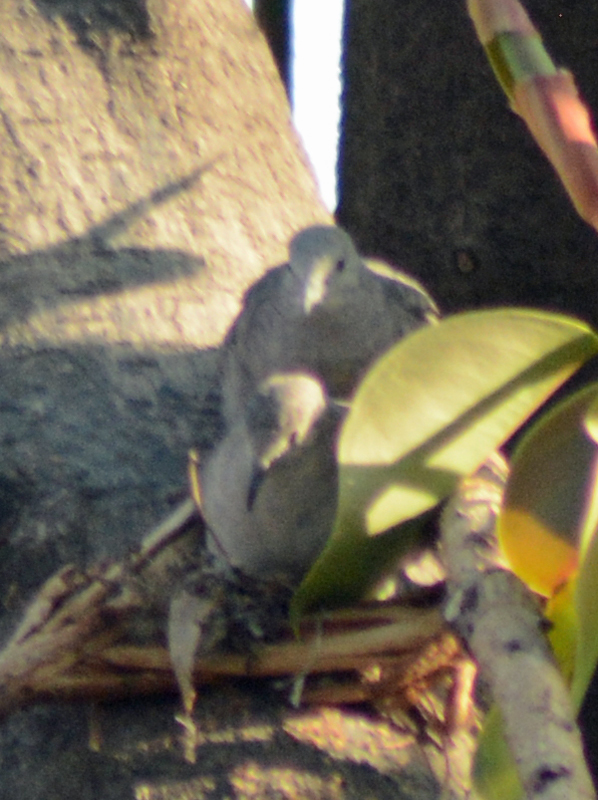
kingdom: Animalia
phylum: Chordata
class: Aves
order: Columbiformes
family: Columbidae
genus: Columbina
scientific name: Columbina inca
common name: Inca dove
